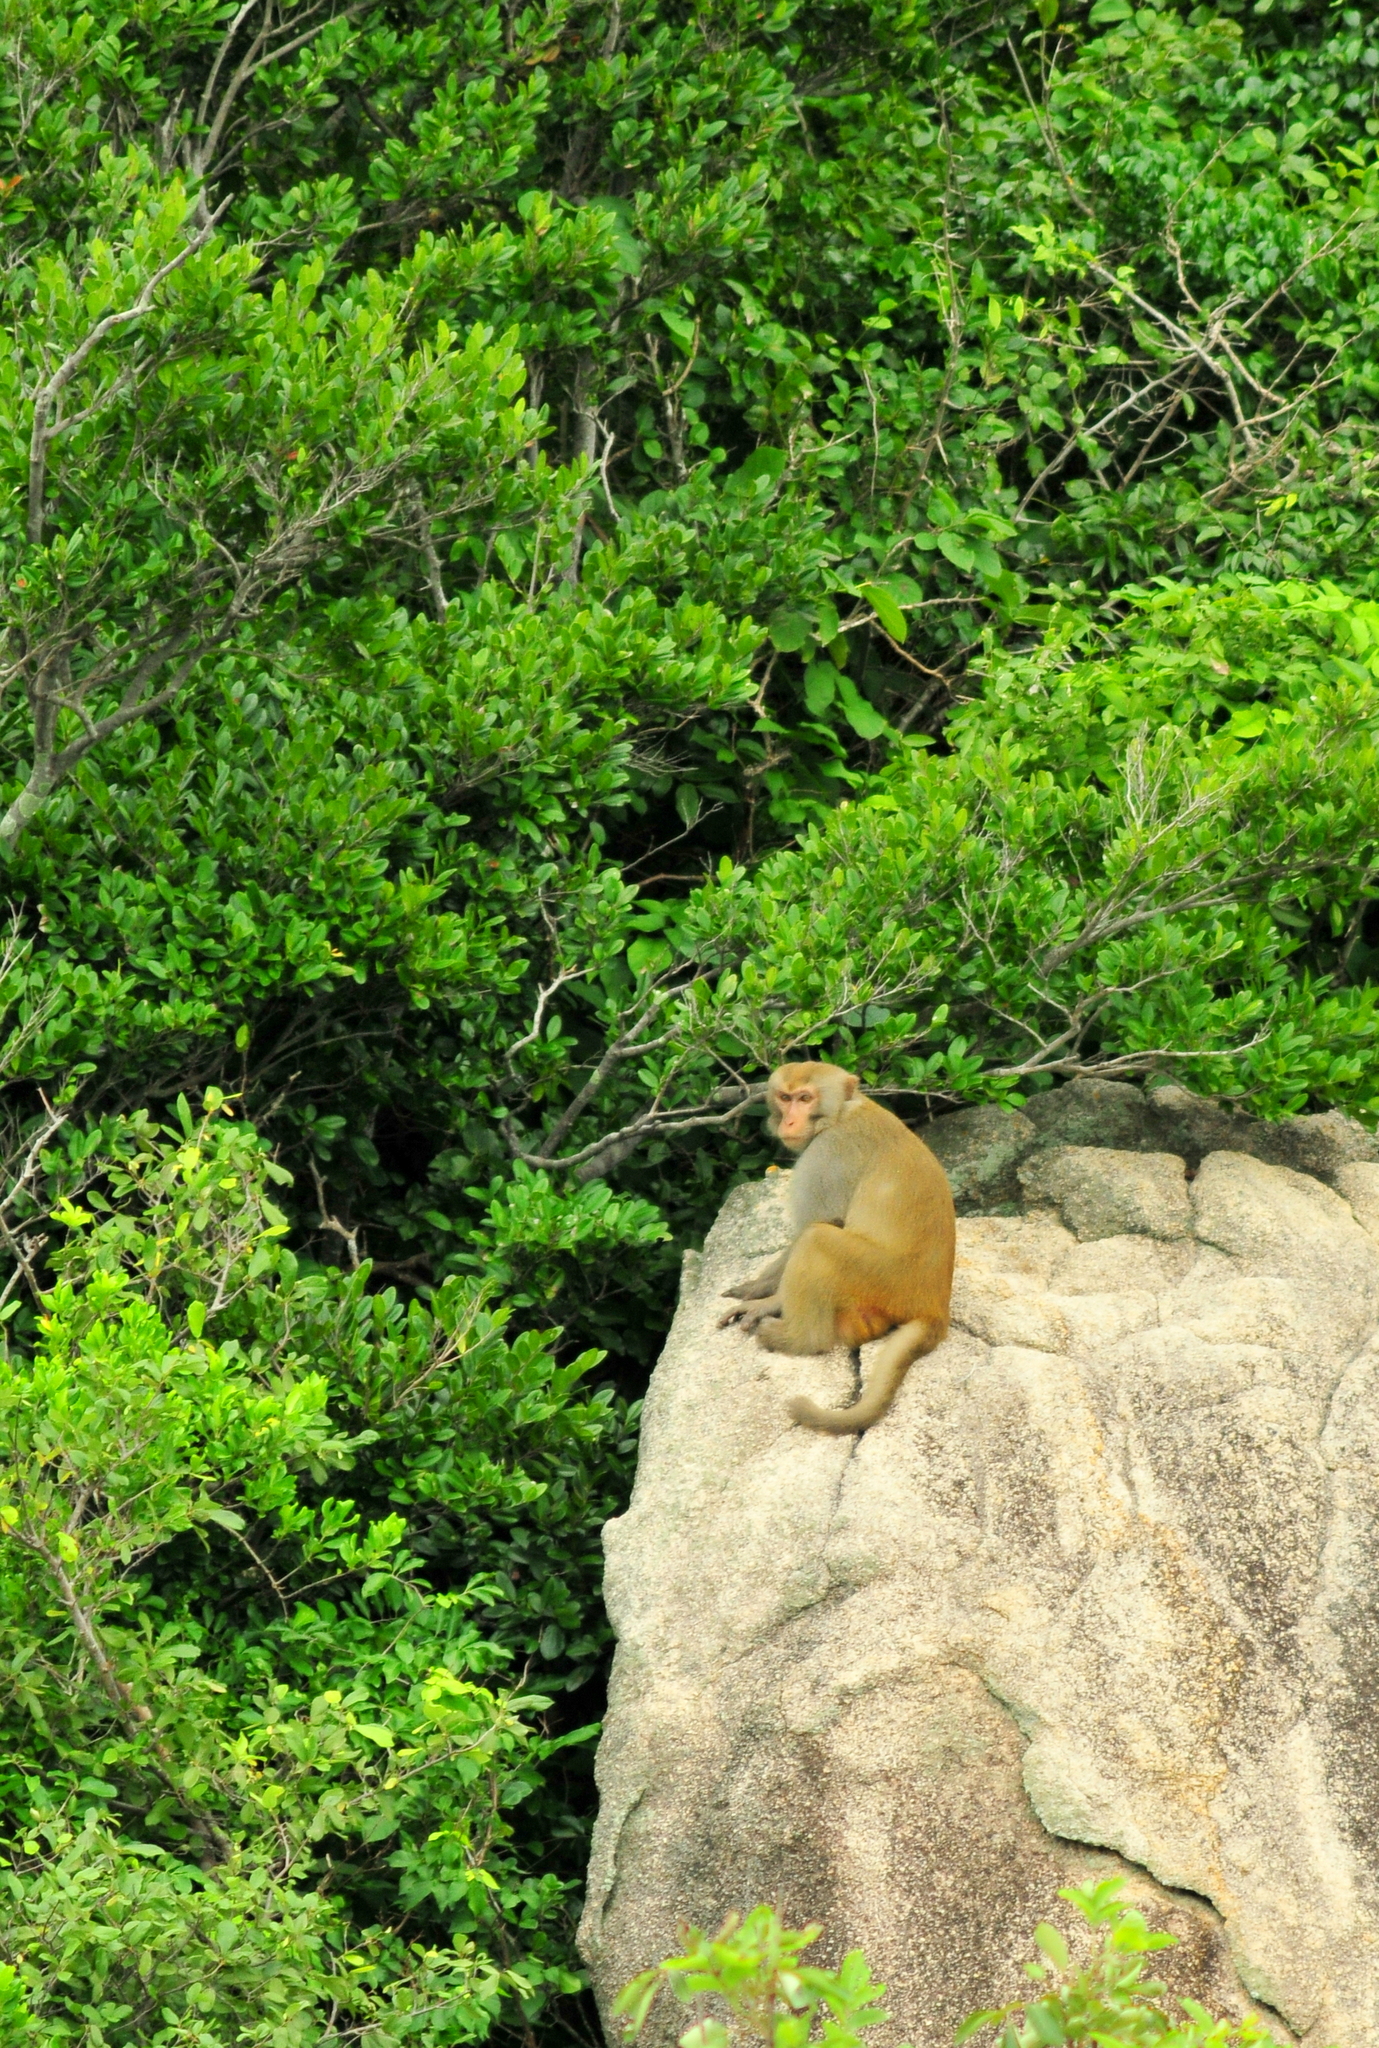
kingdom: Animalia
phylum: Chordata
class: Mammalia
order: Primates
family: Cercopithecidae
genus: Macaca
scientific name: Macaca mulatta
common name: Rhesus monkey
